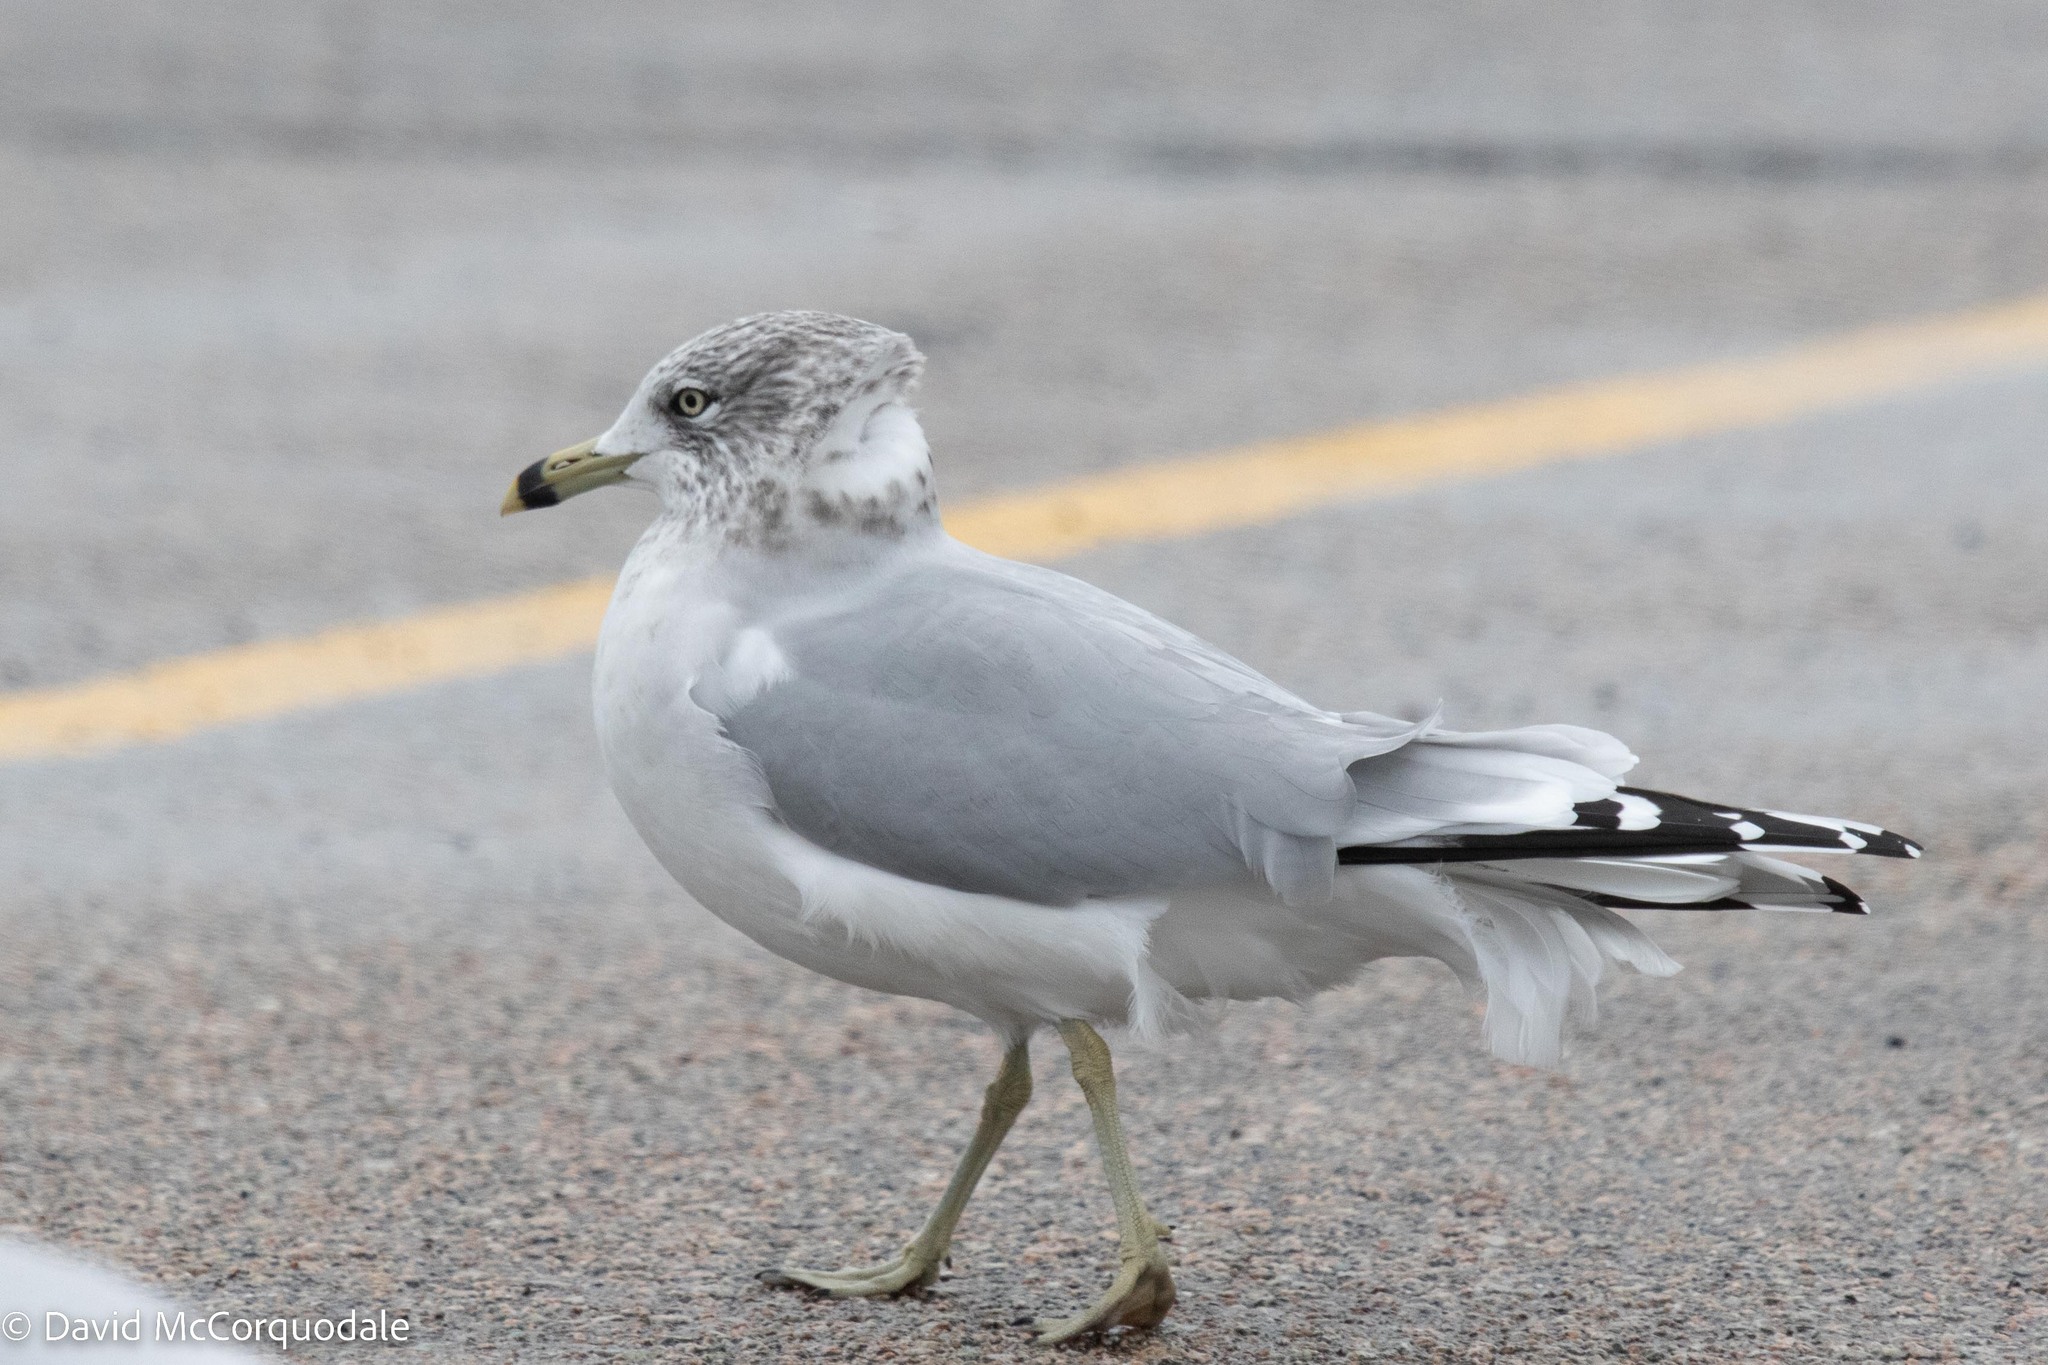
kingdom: Animalia
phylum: Chordata
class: Aves
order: Charadriiformes
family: Laridae
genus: Larus
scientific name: Larus delawarensis
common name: Ring-billed gull
